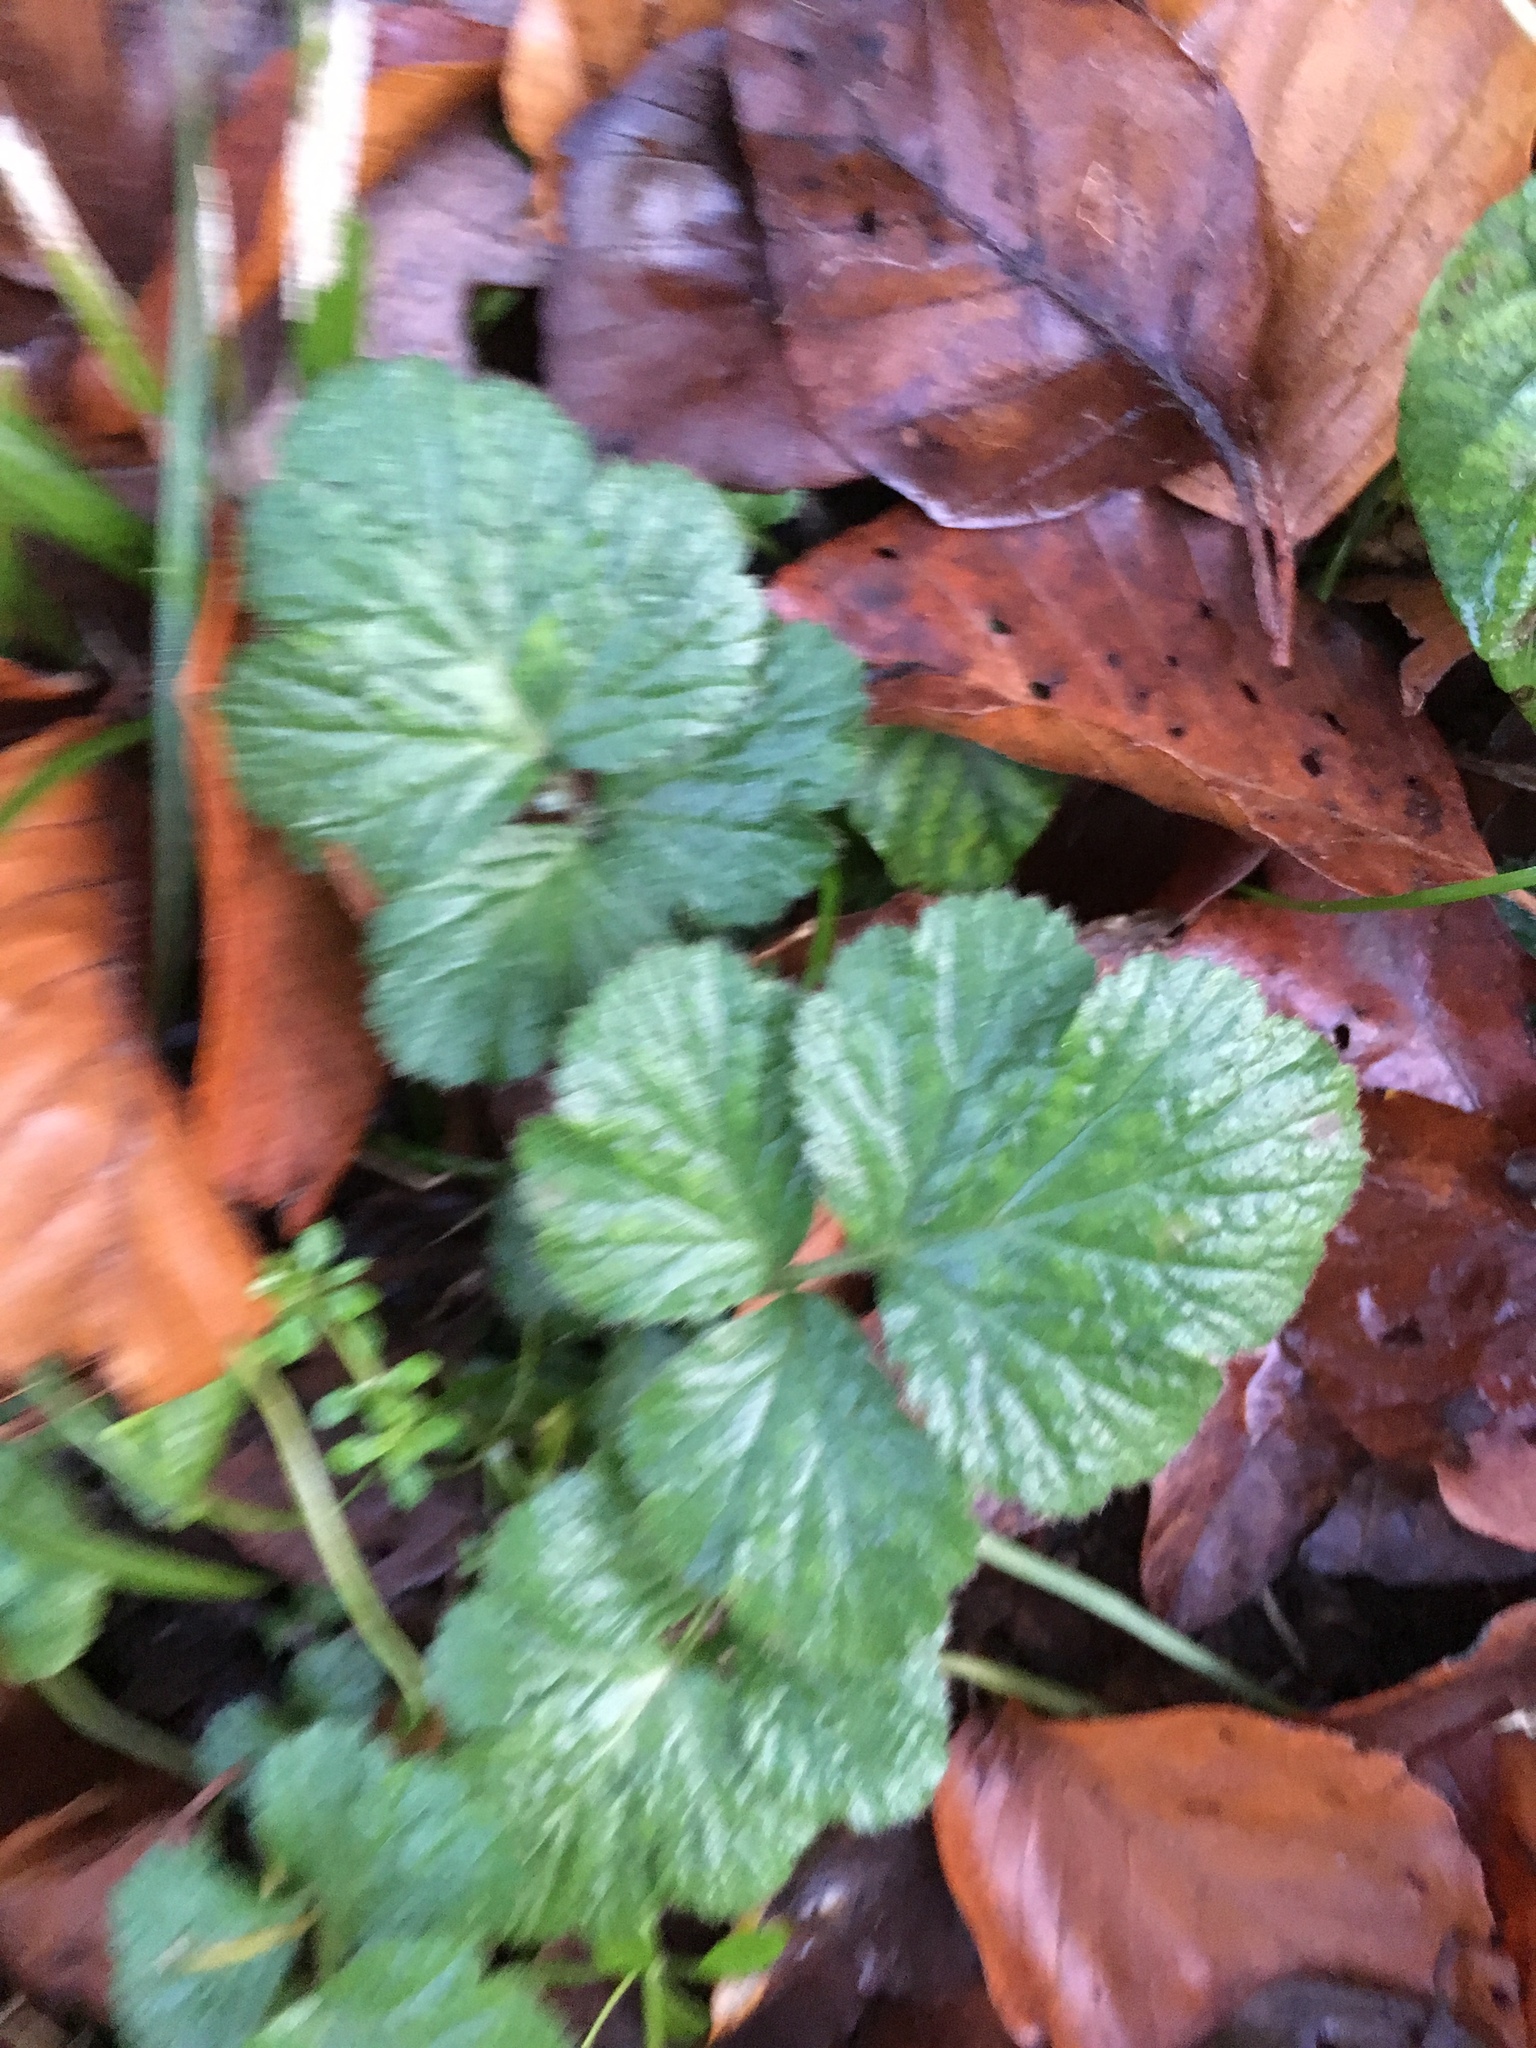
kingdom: Plantae
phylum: Tracheophyta
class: Magnoliopsida
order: Rosales
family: Rosaceae
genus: Geum
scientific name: Geum urbanum
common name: Wood avens
